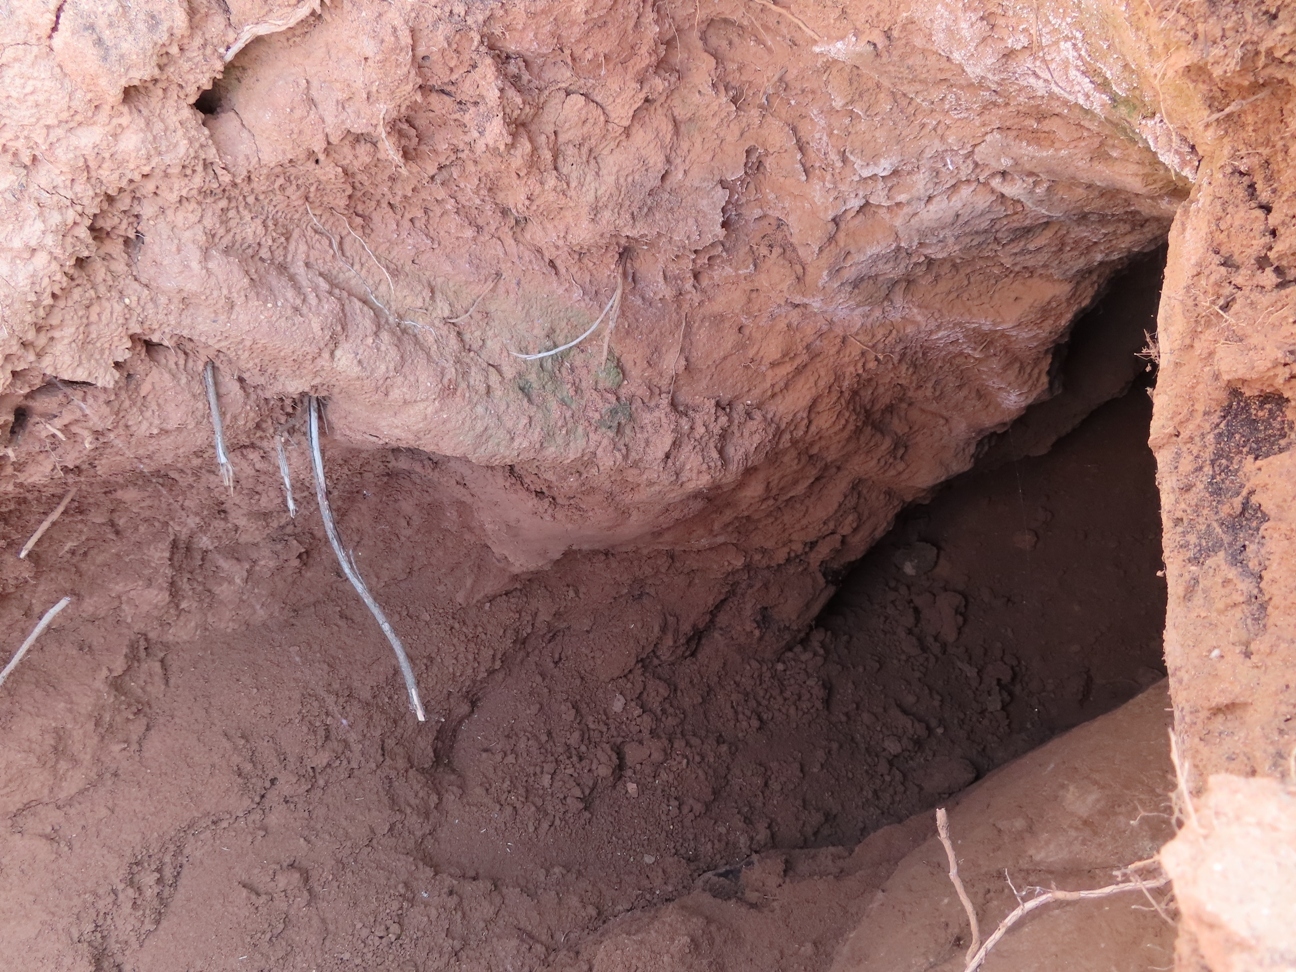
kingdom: Animalia
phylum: Chordata
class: Mammalia
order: Tubulidentata
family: Orycteropodidae
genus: Orycteropus
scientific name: Orycteropus afer
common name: Aardvark
